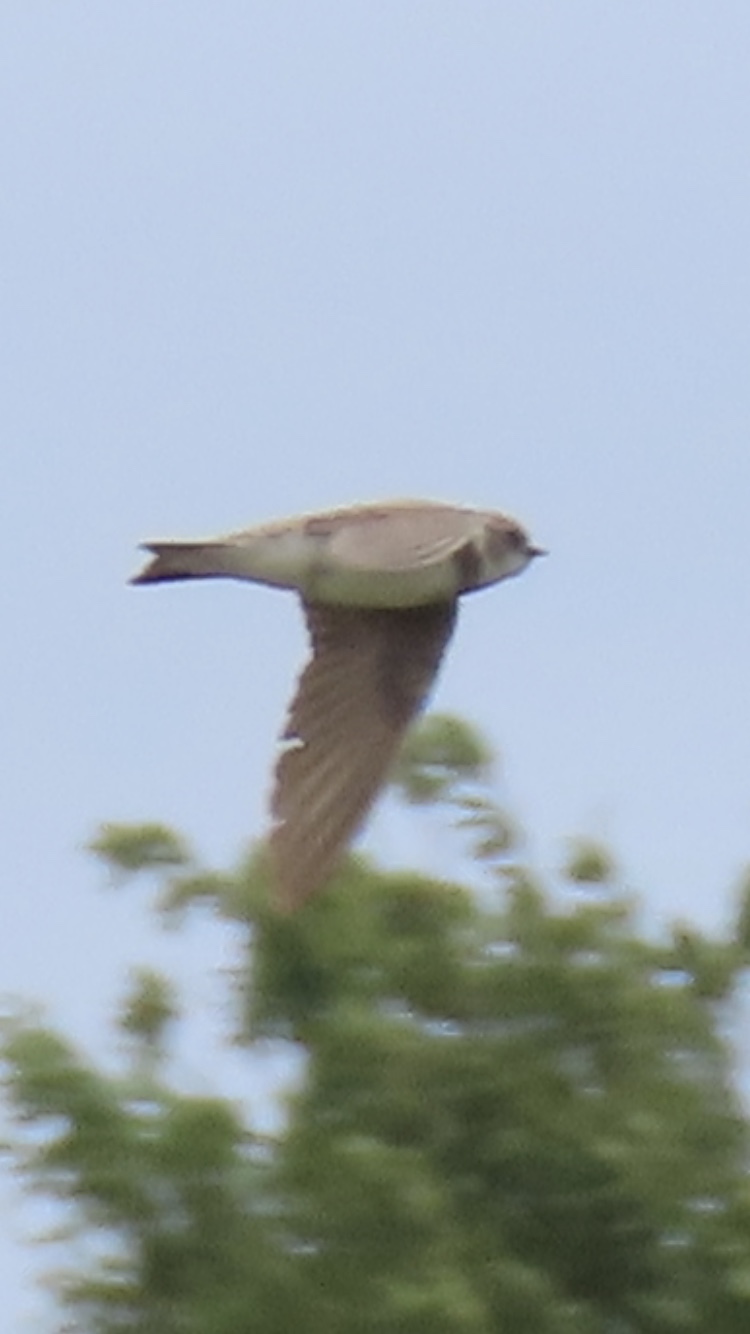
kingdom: Animalia
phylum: Chordata
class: Aves
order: Passeriformes
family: Hirundinidae
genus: Riparia
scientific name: Riparia riparia
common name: Sand martin
